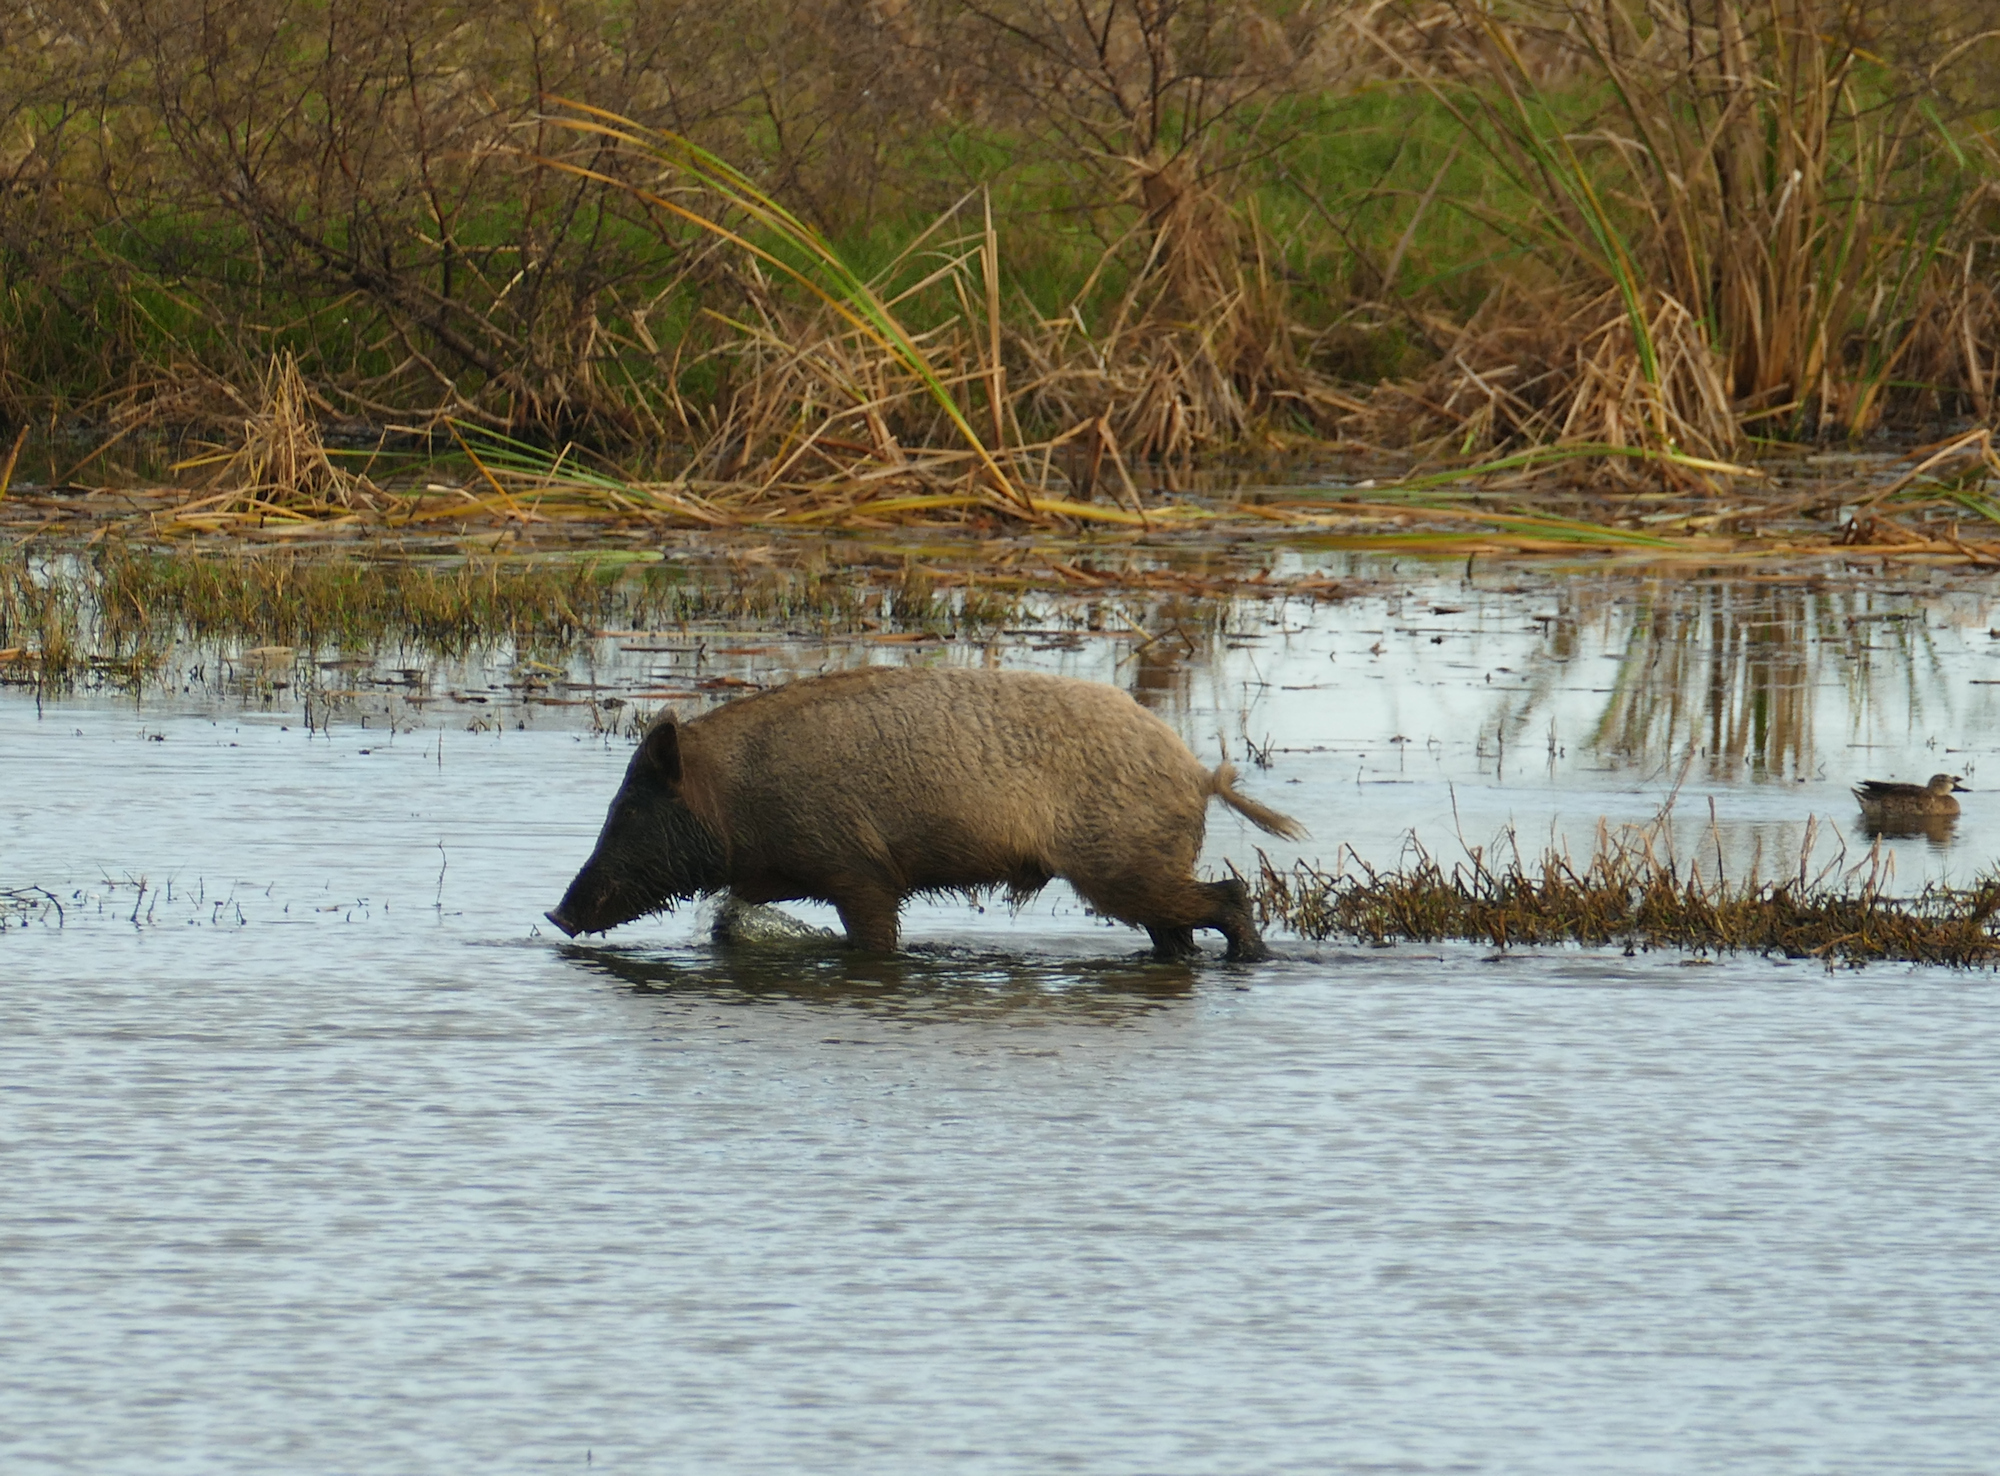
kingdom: Animalia
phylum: Chordata
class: Mammalia
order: Artiodactyla
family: Suidae
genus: Sus
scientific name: Sus scrofa
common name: Wild boar
